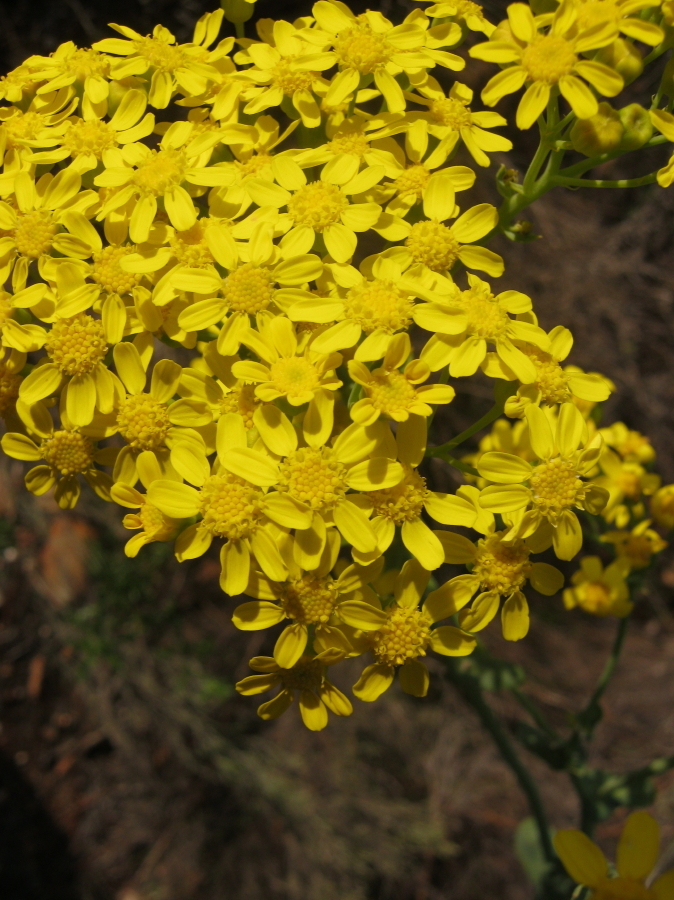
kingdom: Plantae
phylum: Tracheophyta
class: Magnoliopsida
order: Asterales
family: Asteraceae
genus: Othonna
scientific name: Othonna parviflora
